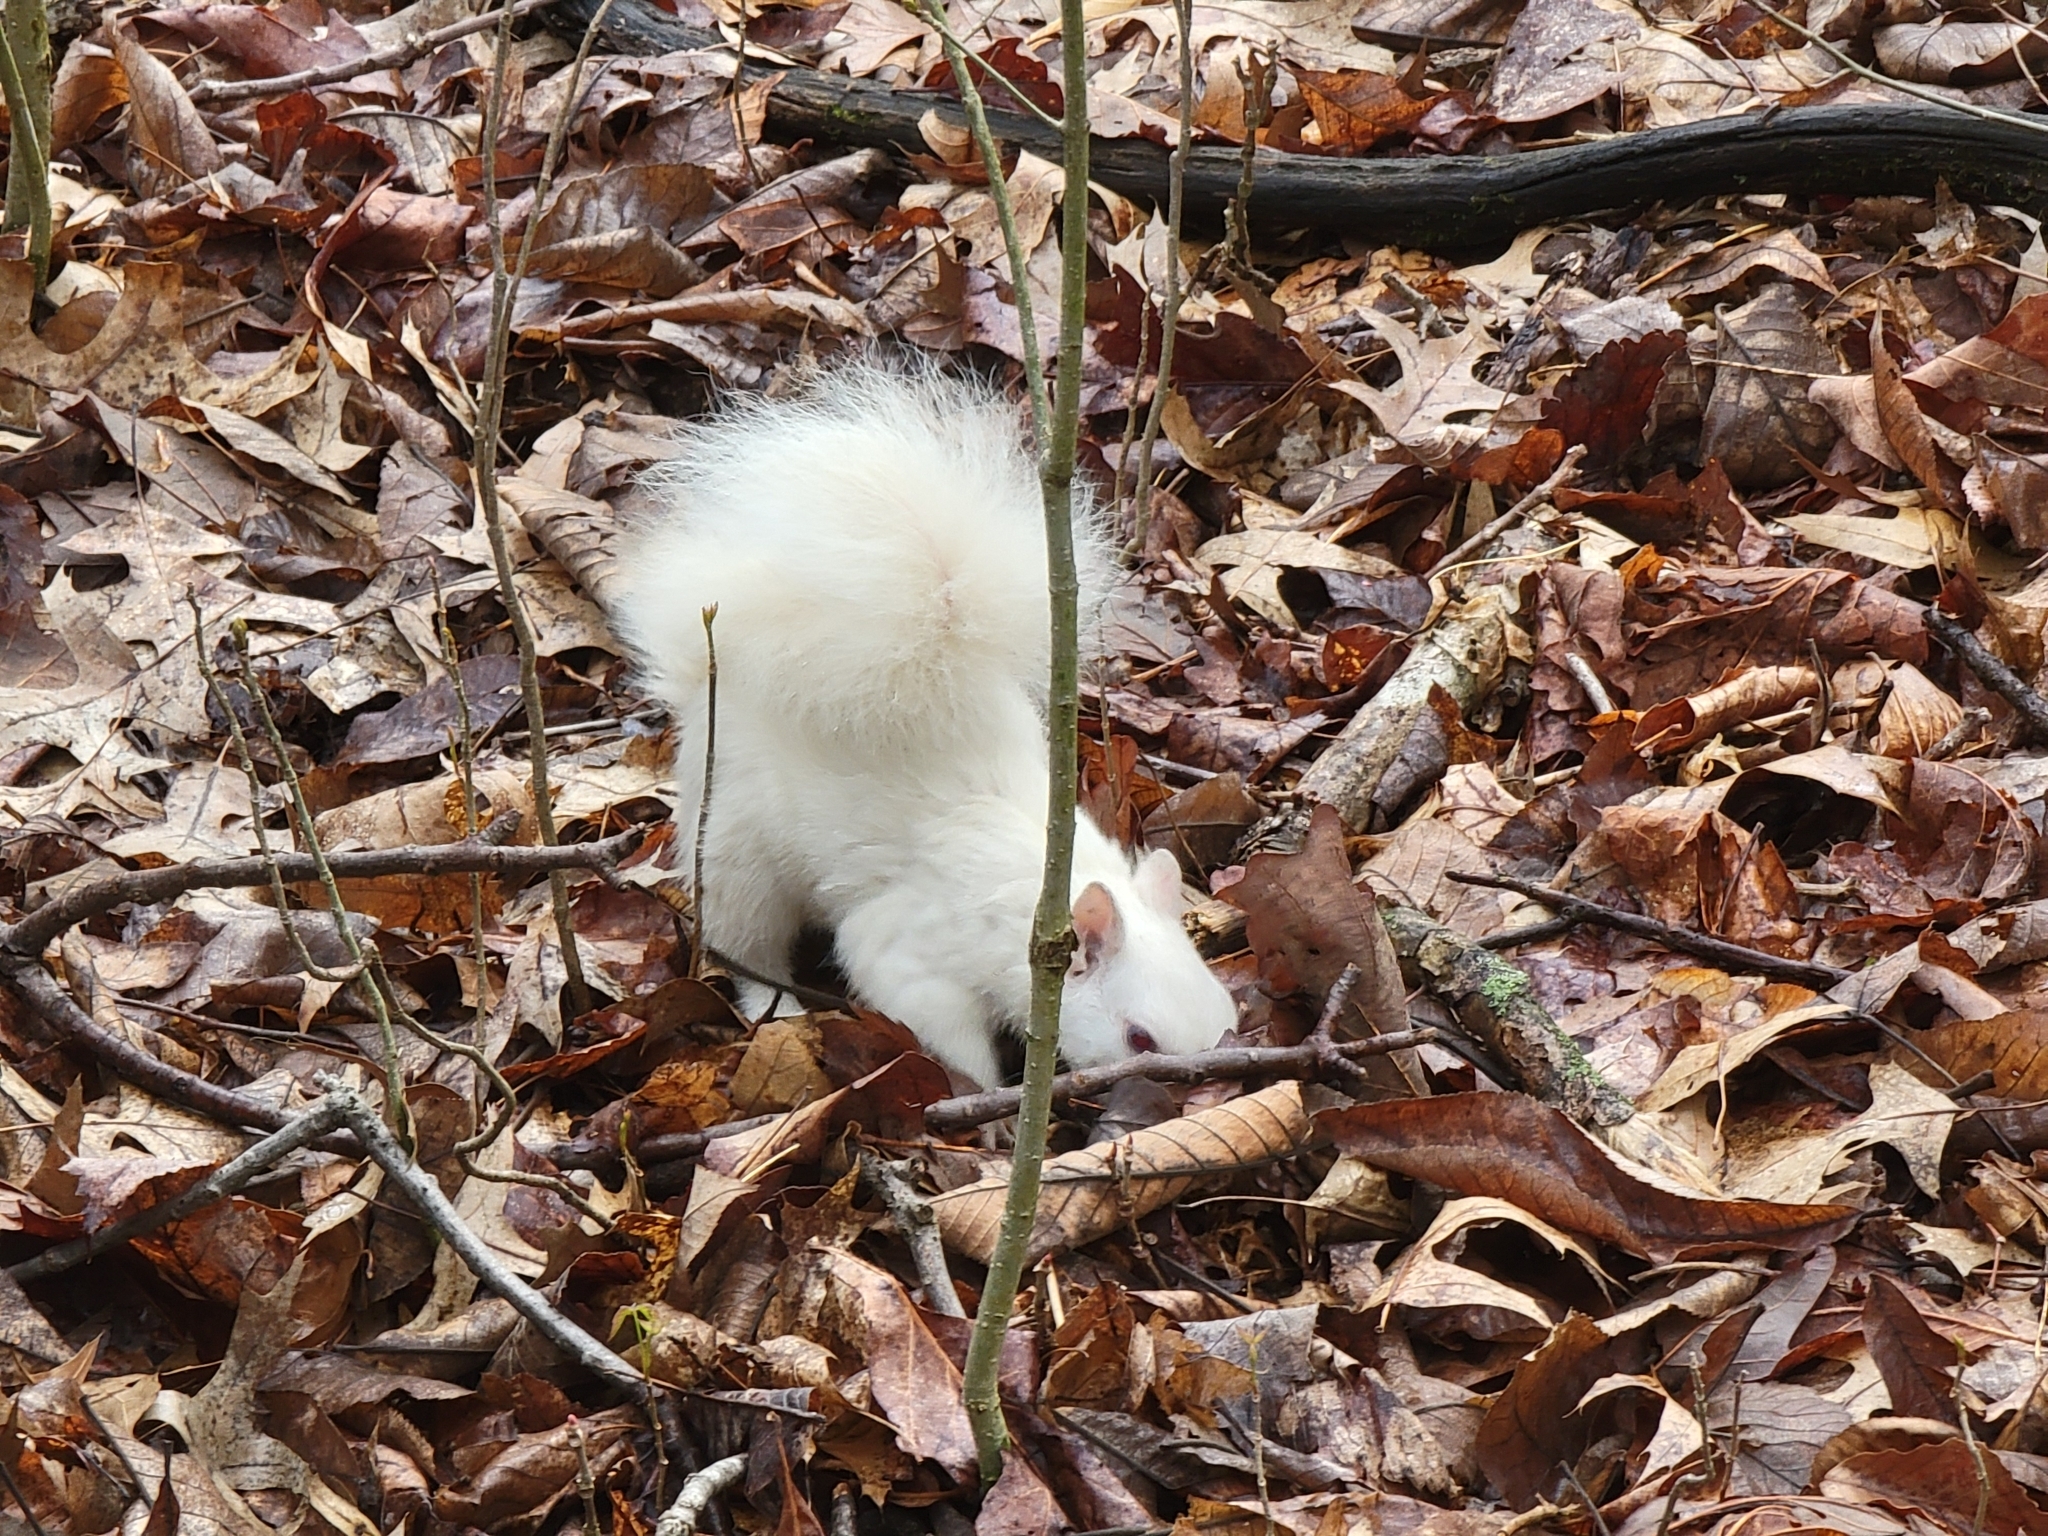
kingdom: Animalia
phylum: Chordata
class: Mammalia
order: Rodentia
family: Sciuridae
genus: Sciurus
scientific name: Sciurus carolinensis
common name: Eastern gray squirrel
